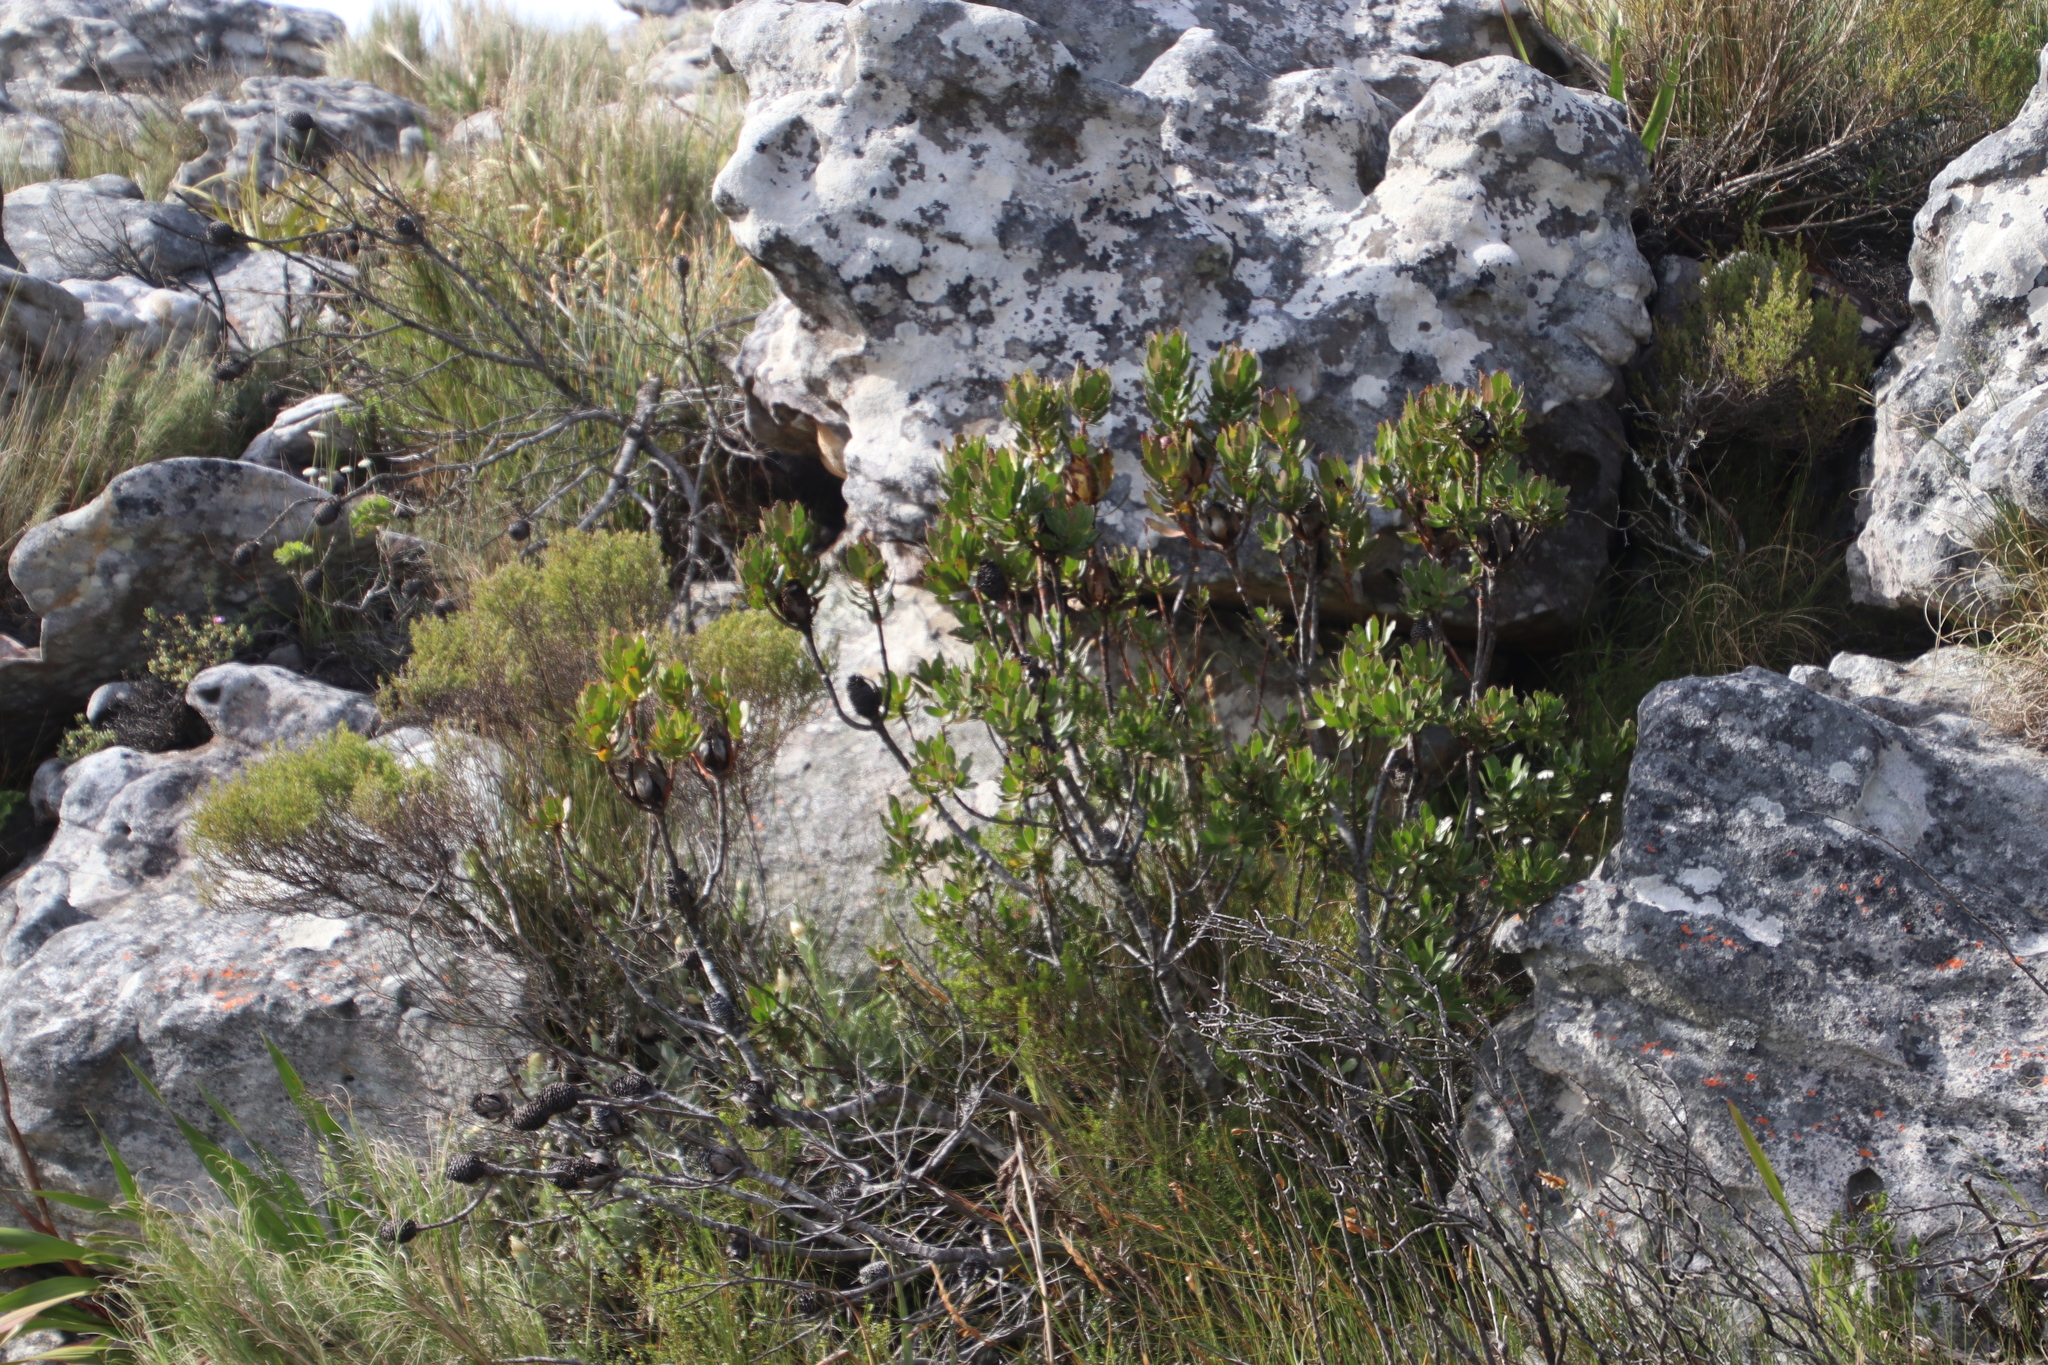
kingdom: Plantae
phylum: Tracheophyta
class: Magnoliopsida
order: Proteales
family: Proteaceae
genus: Leucadendron
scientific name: Leucadendron strobilinum
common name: Mountain rose
